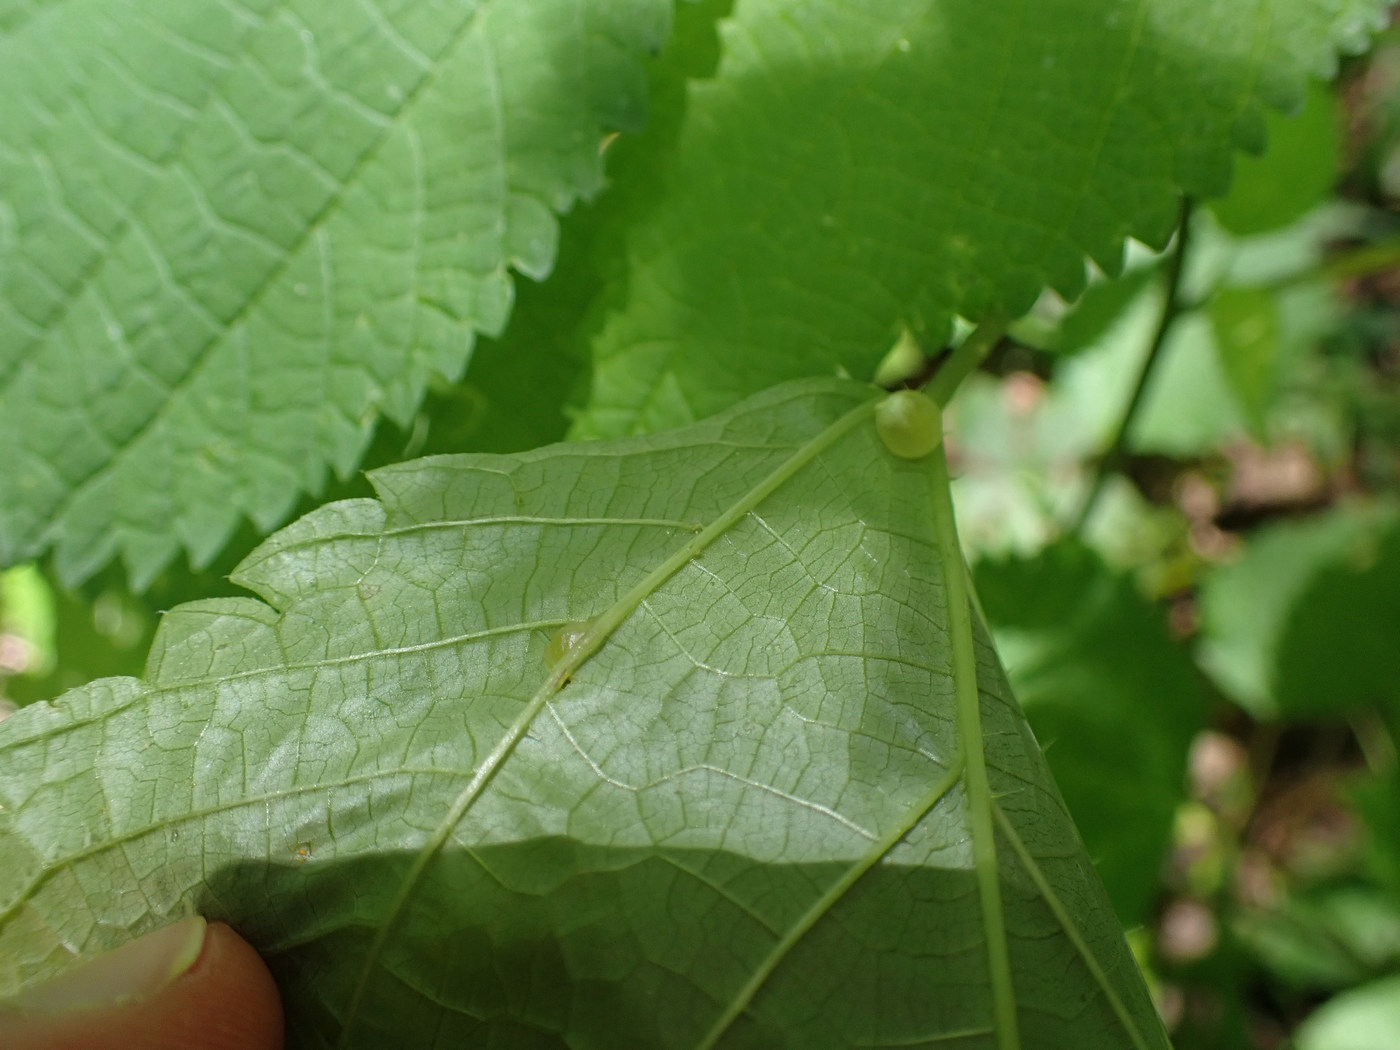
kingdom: Animalia
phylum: Arthropoda
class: Insecta
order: Diptera
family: Cecidomyiidae
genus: Dasineura
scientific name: Dasineura investita
